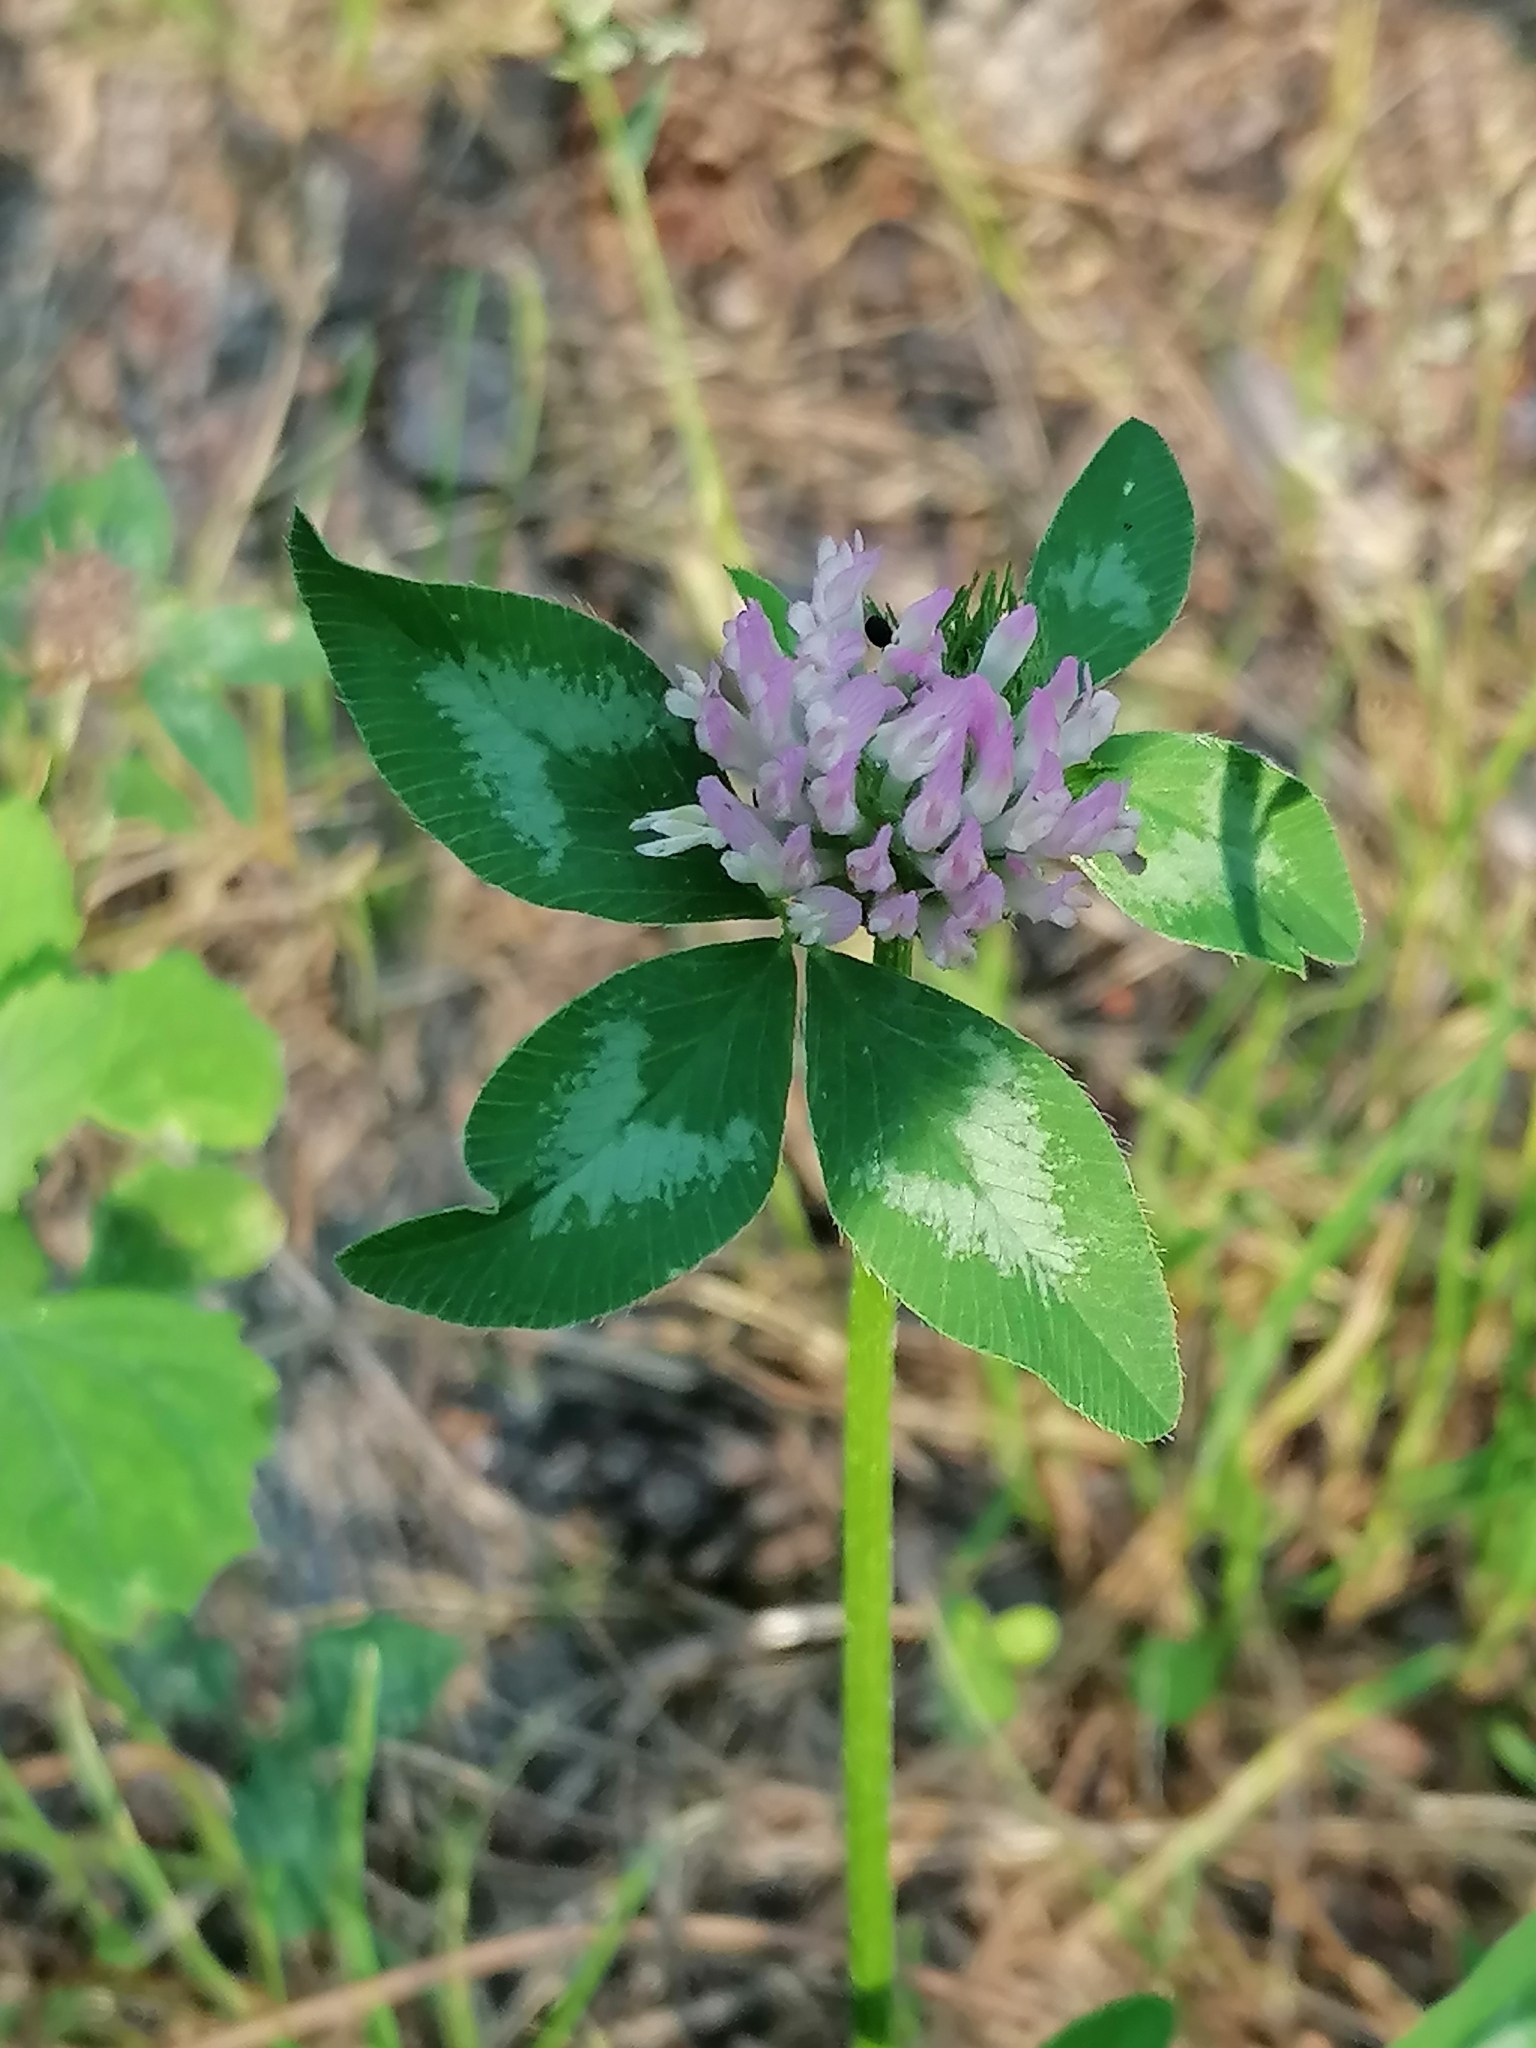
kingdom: Plantae
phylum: Tracheophyta
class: Magnoliopsida
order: Fabales
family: Fabaceae
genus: Trifolium
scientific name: Trifolium pratense
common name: Red clover
